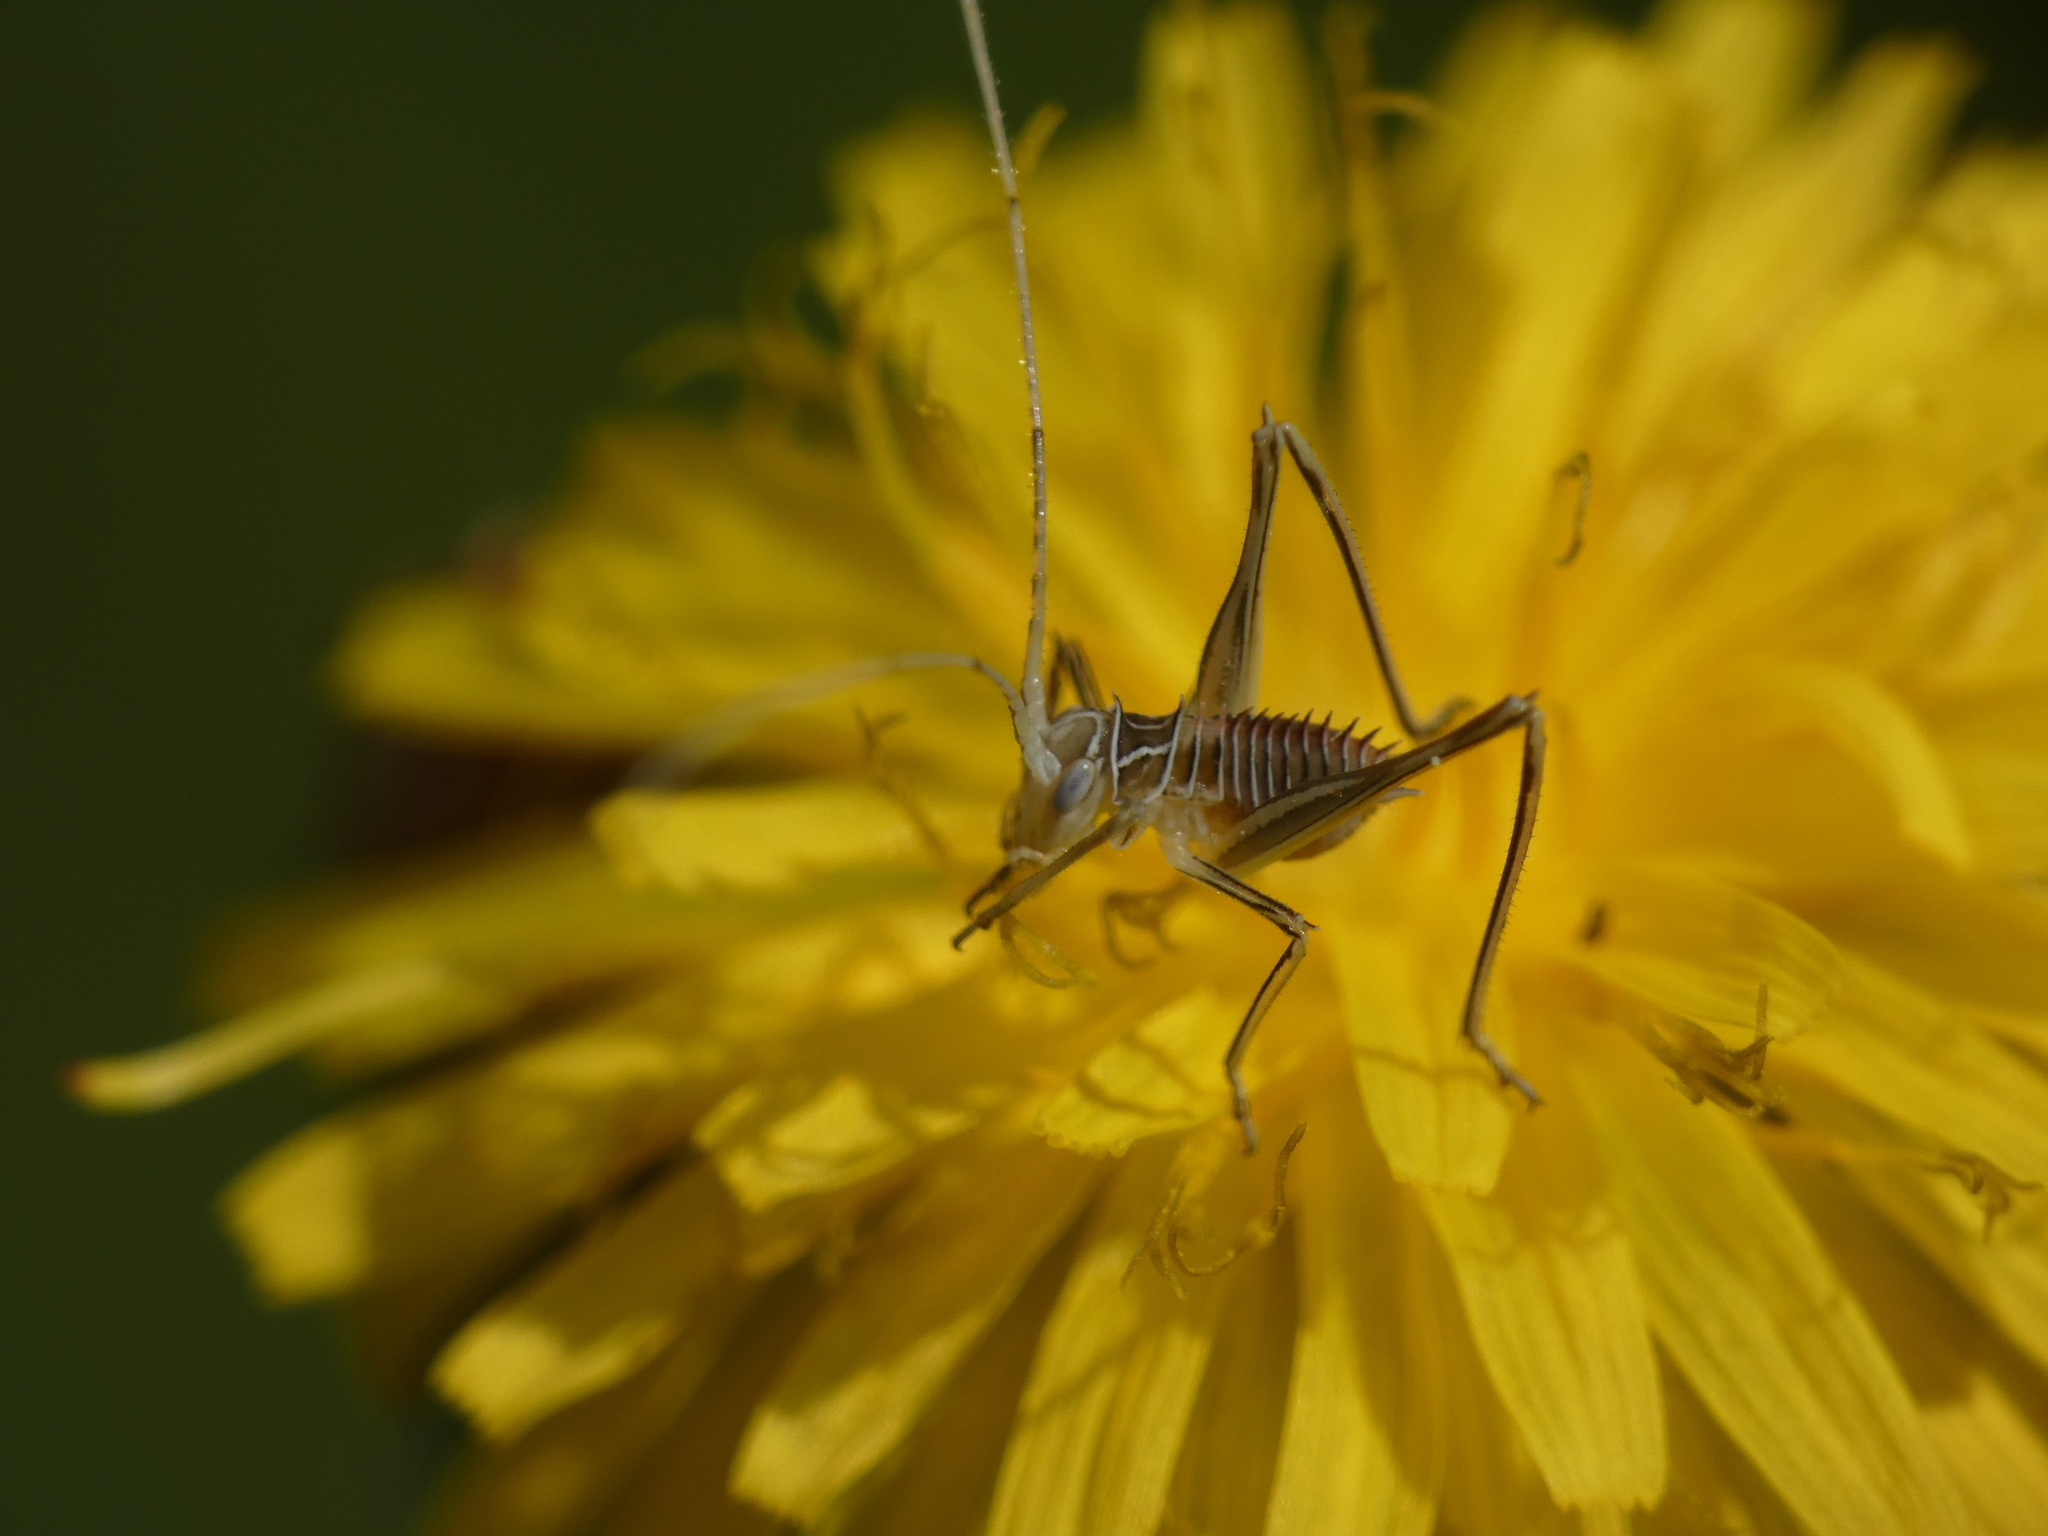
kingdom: Animalia
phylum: Arthropoda
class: Insecta
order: Orthoptera
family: Tettigoniidae
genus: Tylopsis
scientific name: Tylopsis lilifolia
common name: Lily bush-cricket
